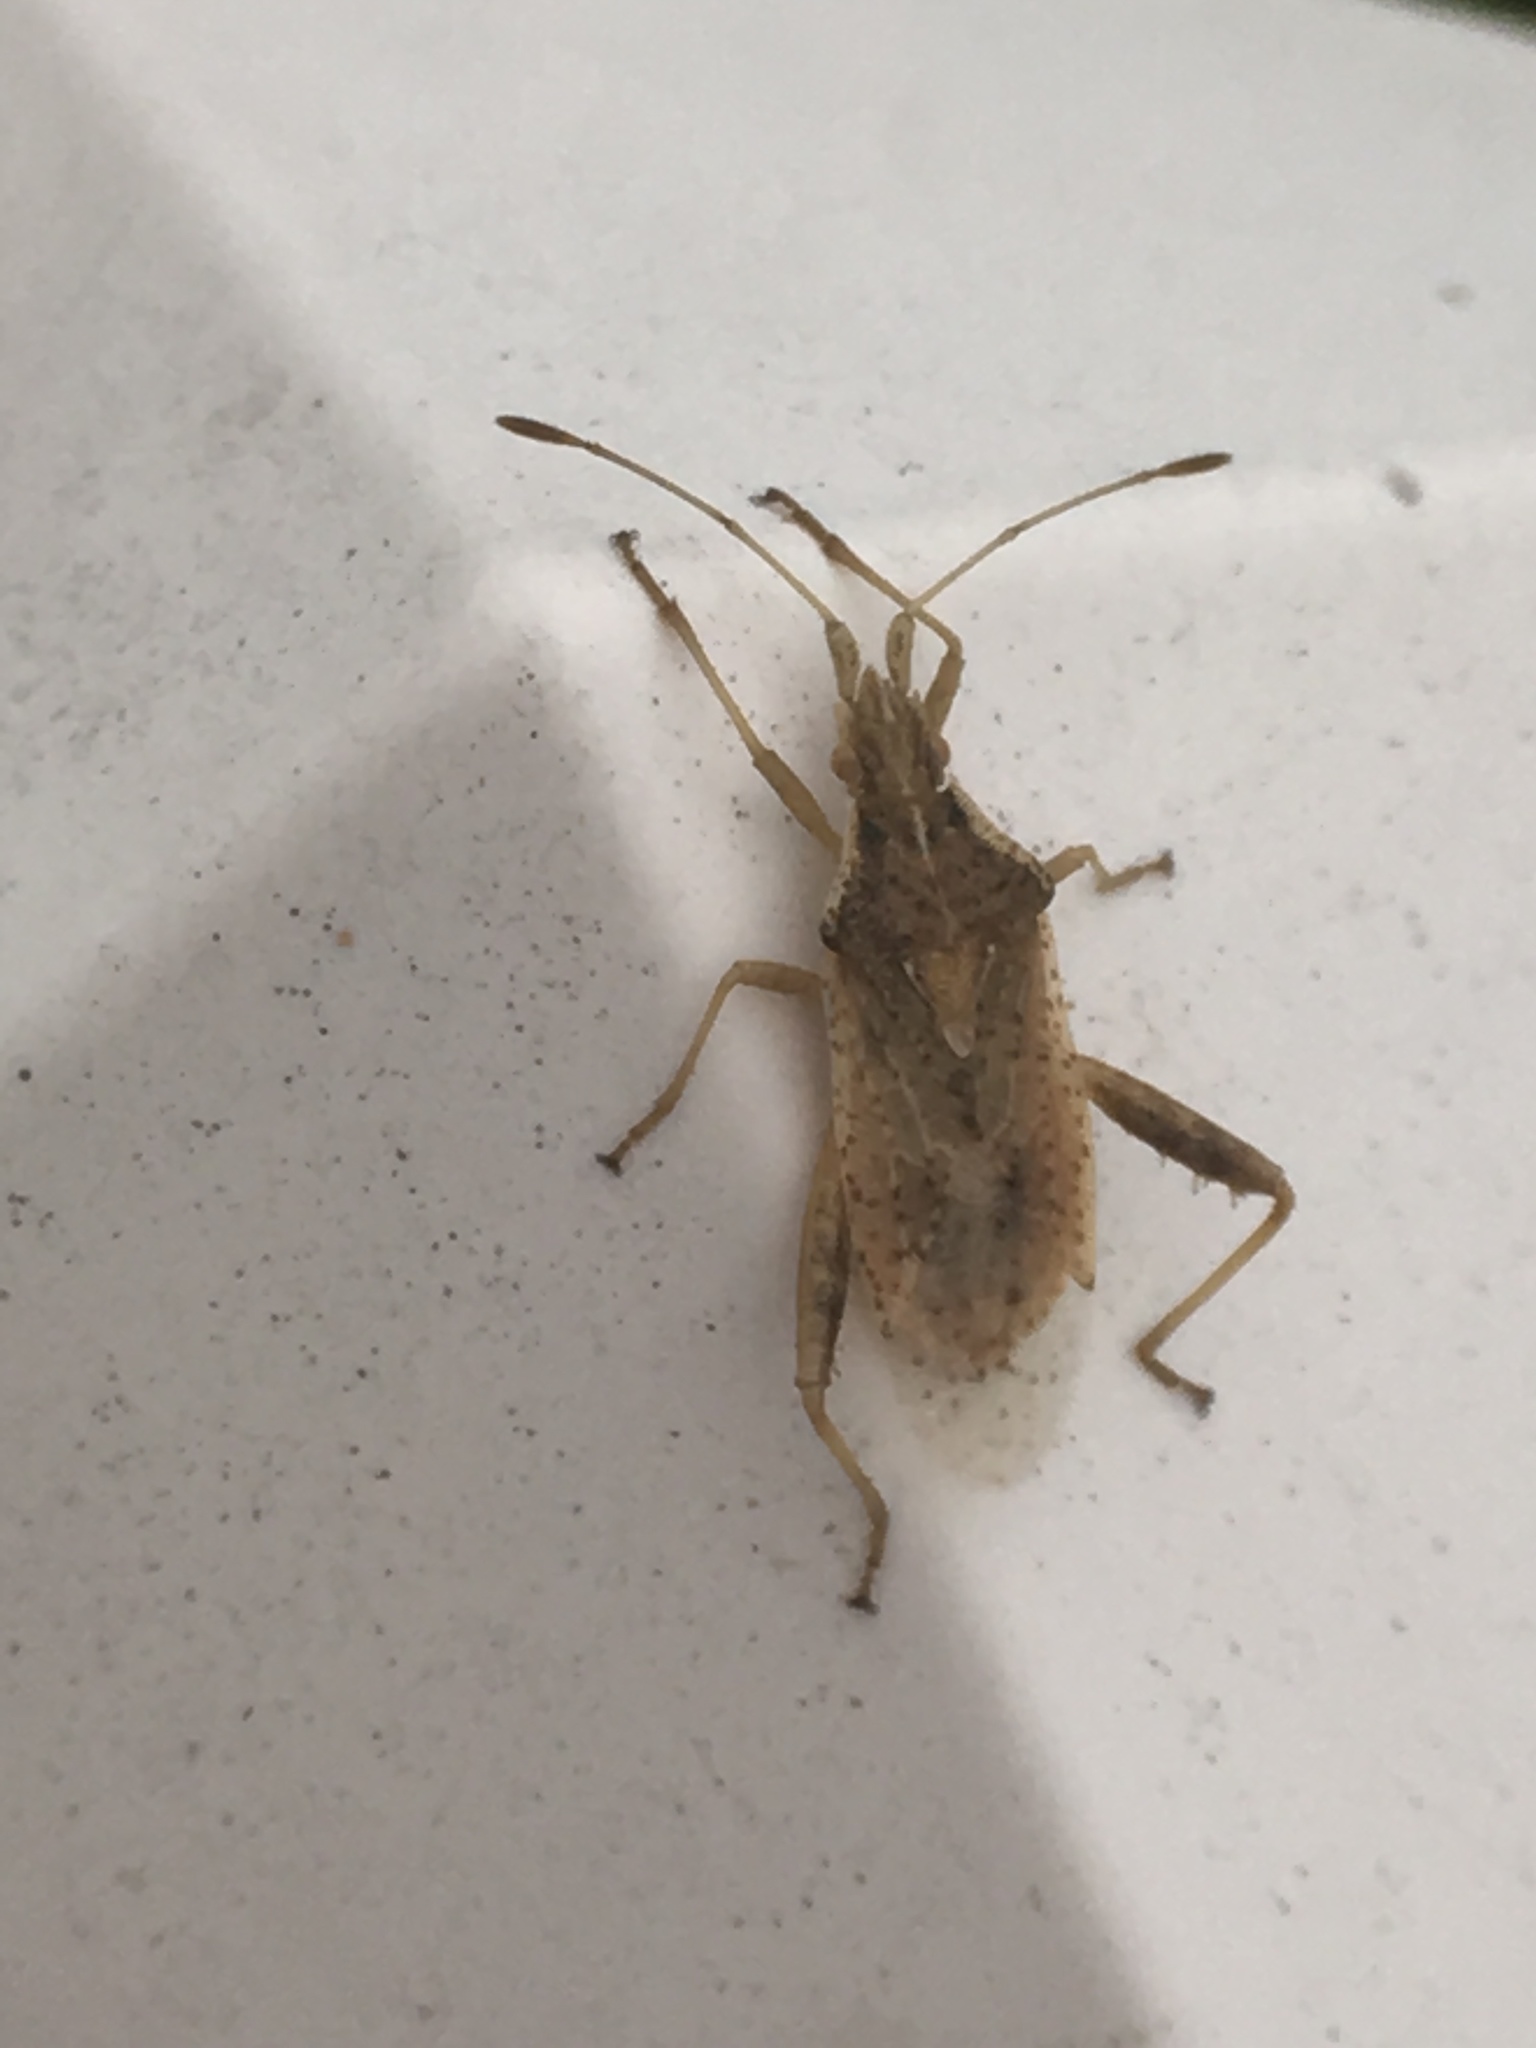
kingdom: Animalia
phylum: Arthropoda
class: Insecta
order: Hemiptera
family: Rhopalidae
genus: Harmostes
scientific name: Harmostes reflexulus
